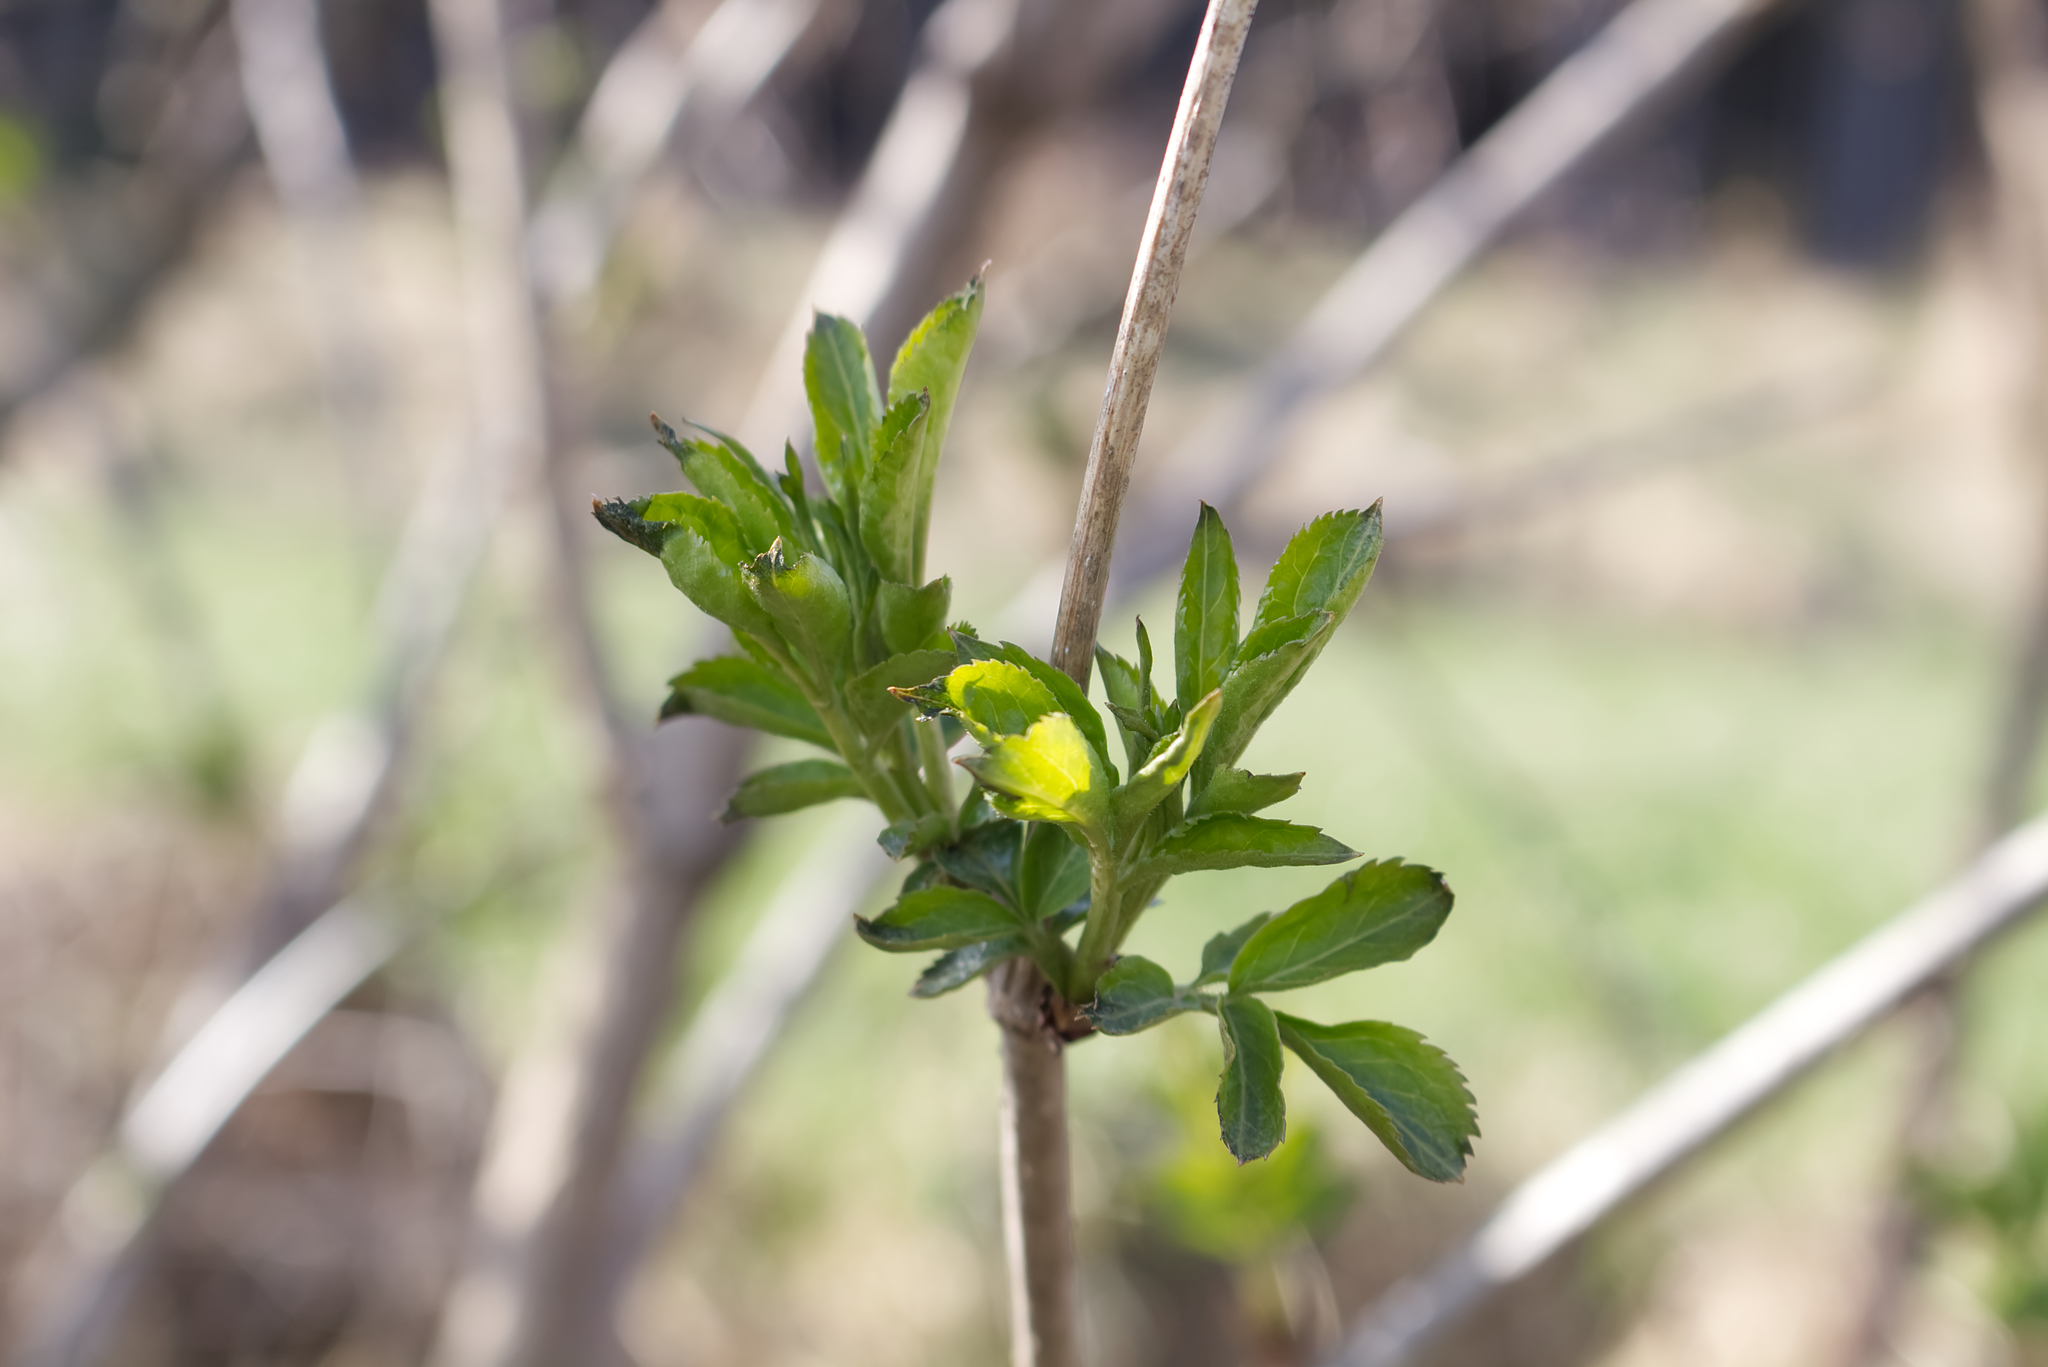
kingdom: Plantae
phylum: Tracheophyta
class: Magnoliopsida
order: Dipsacales
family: Viburnaceae
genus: Sambucus
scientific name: Sambucus nigra
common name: Elder
